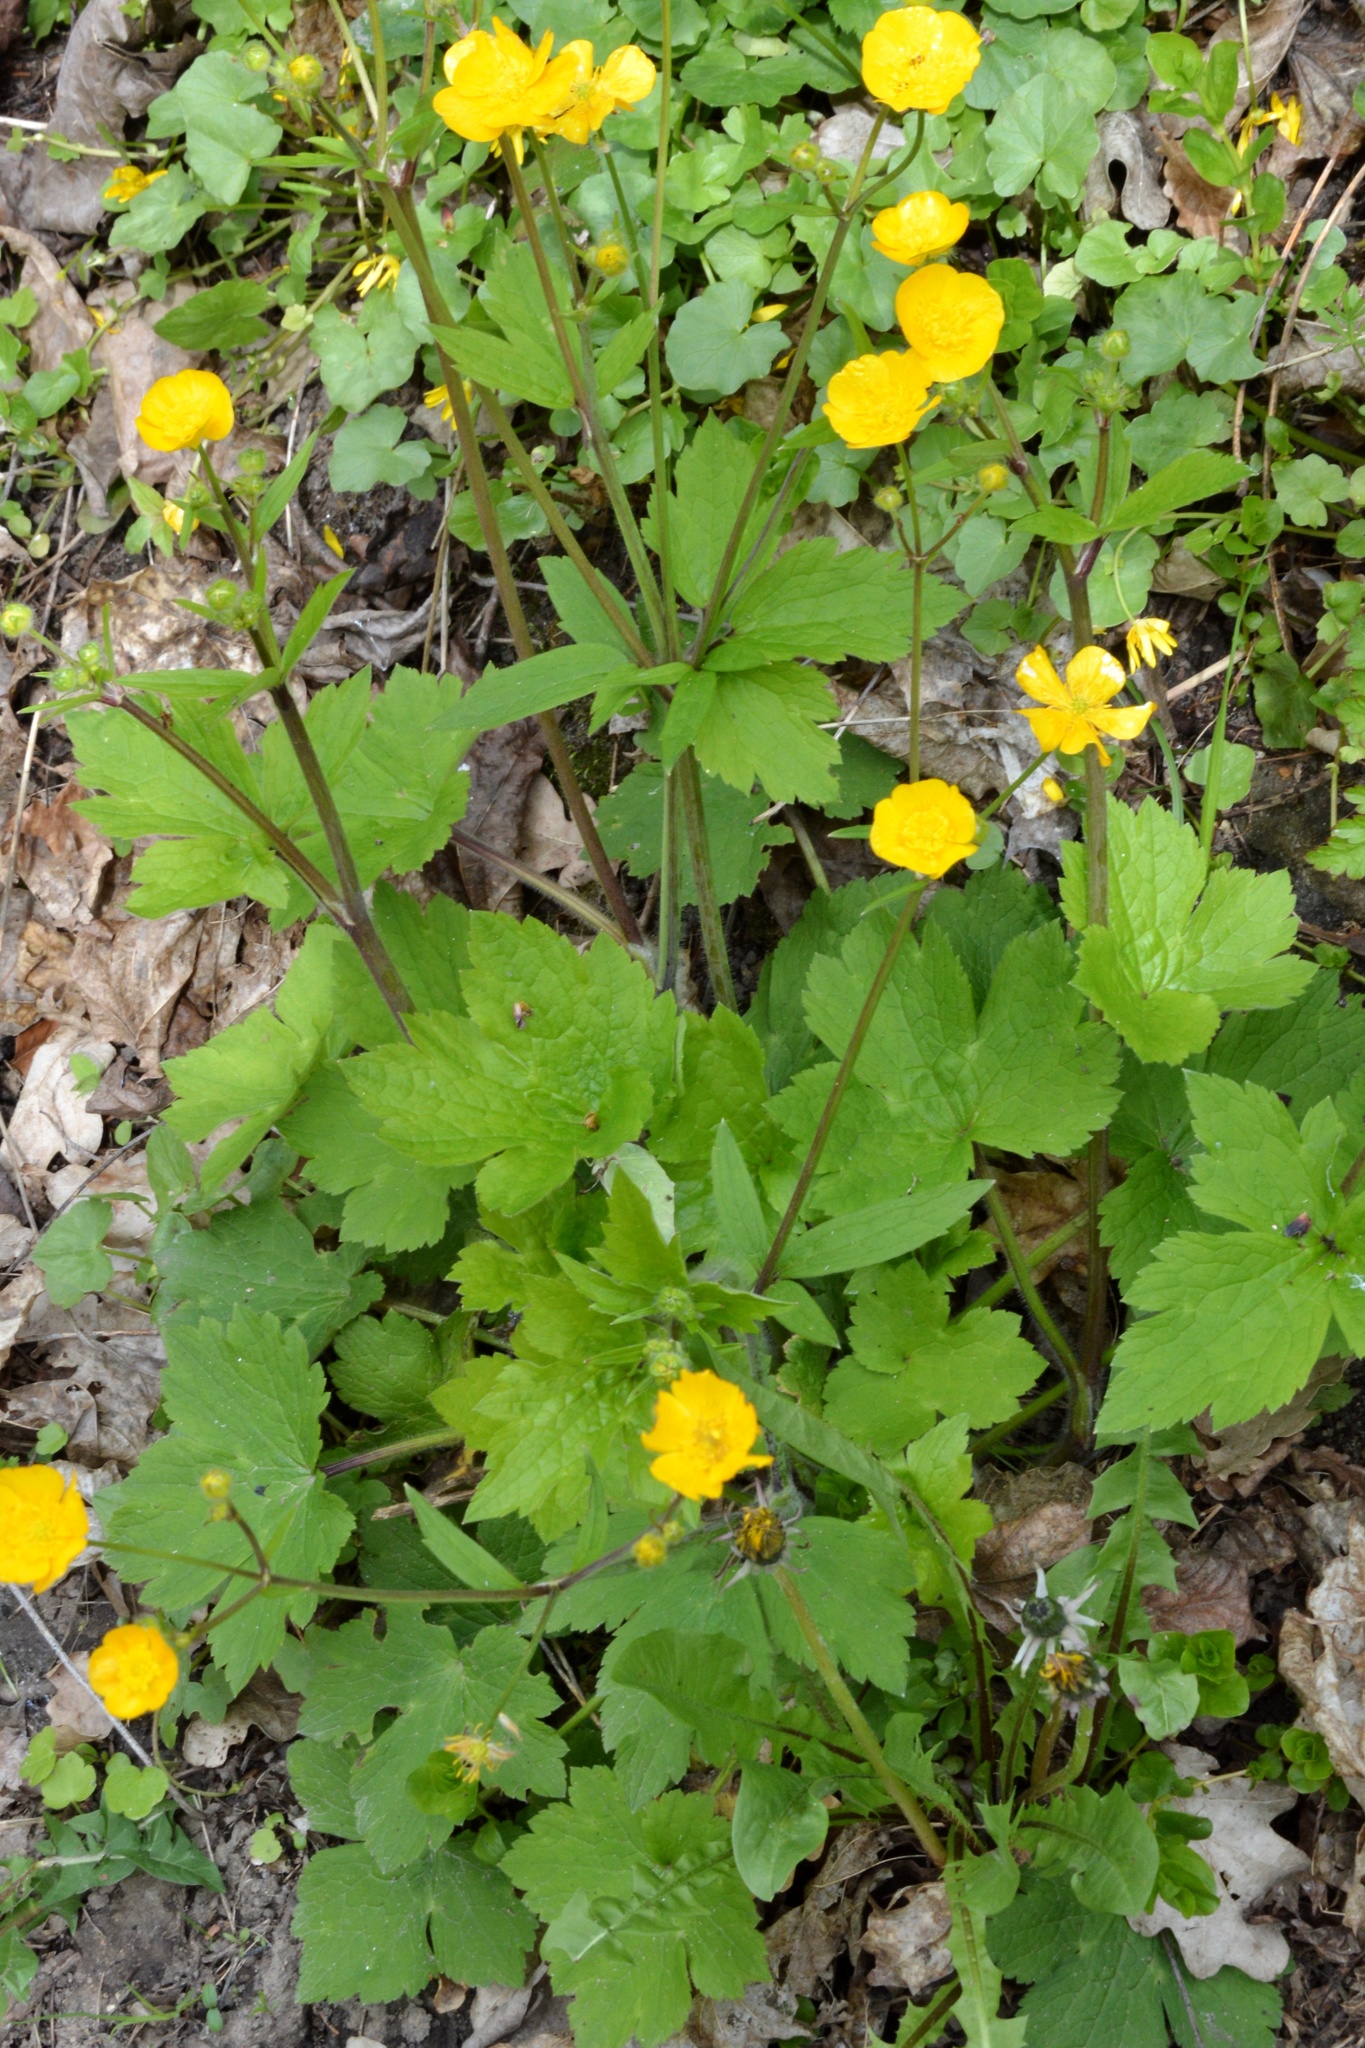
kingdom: Plantae
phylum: Tracheophyta
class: Magnoliopsida
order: Ranunculales
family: Ranunculaceae
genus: Ranunculus
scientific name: Ranunculus lanuginosus
